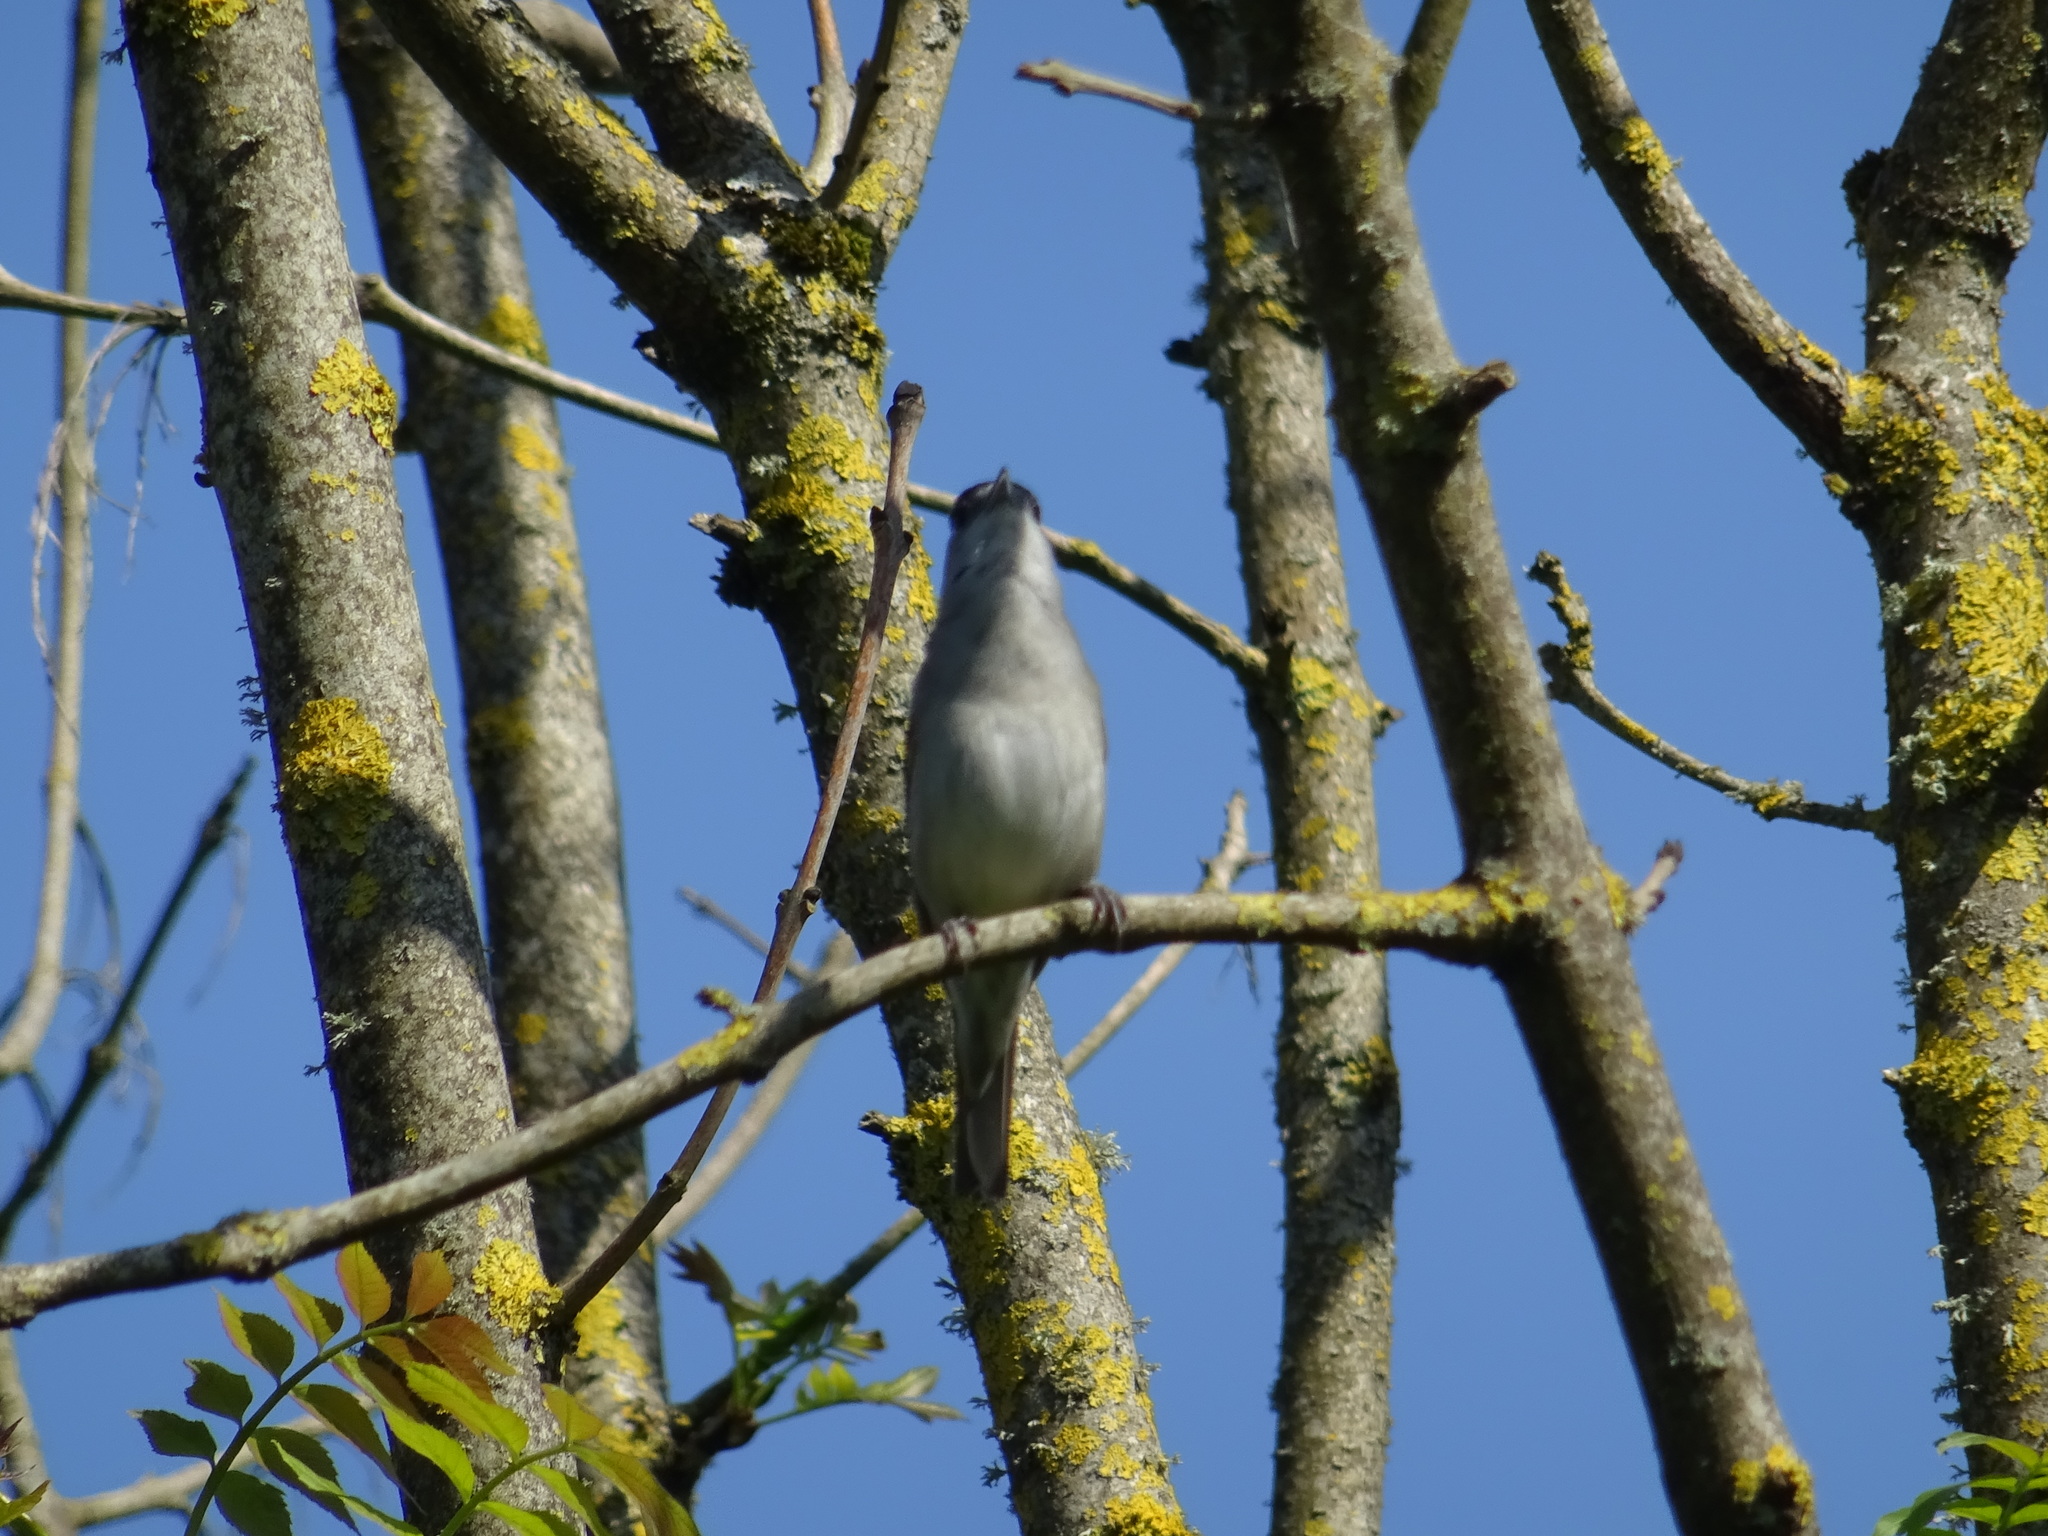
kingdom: Animalia
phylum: Chordata
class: Aves
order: Passeriformes
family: Sylviidae
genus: Sylvia
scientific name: Sylvia atricapilla
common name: Eurasian blackcap
